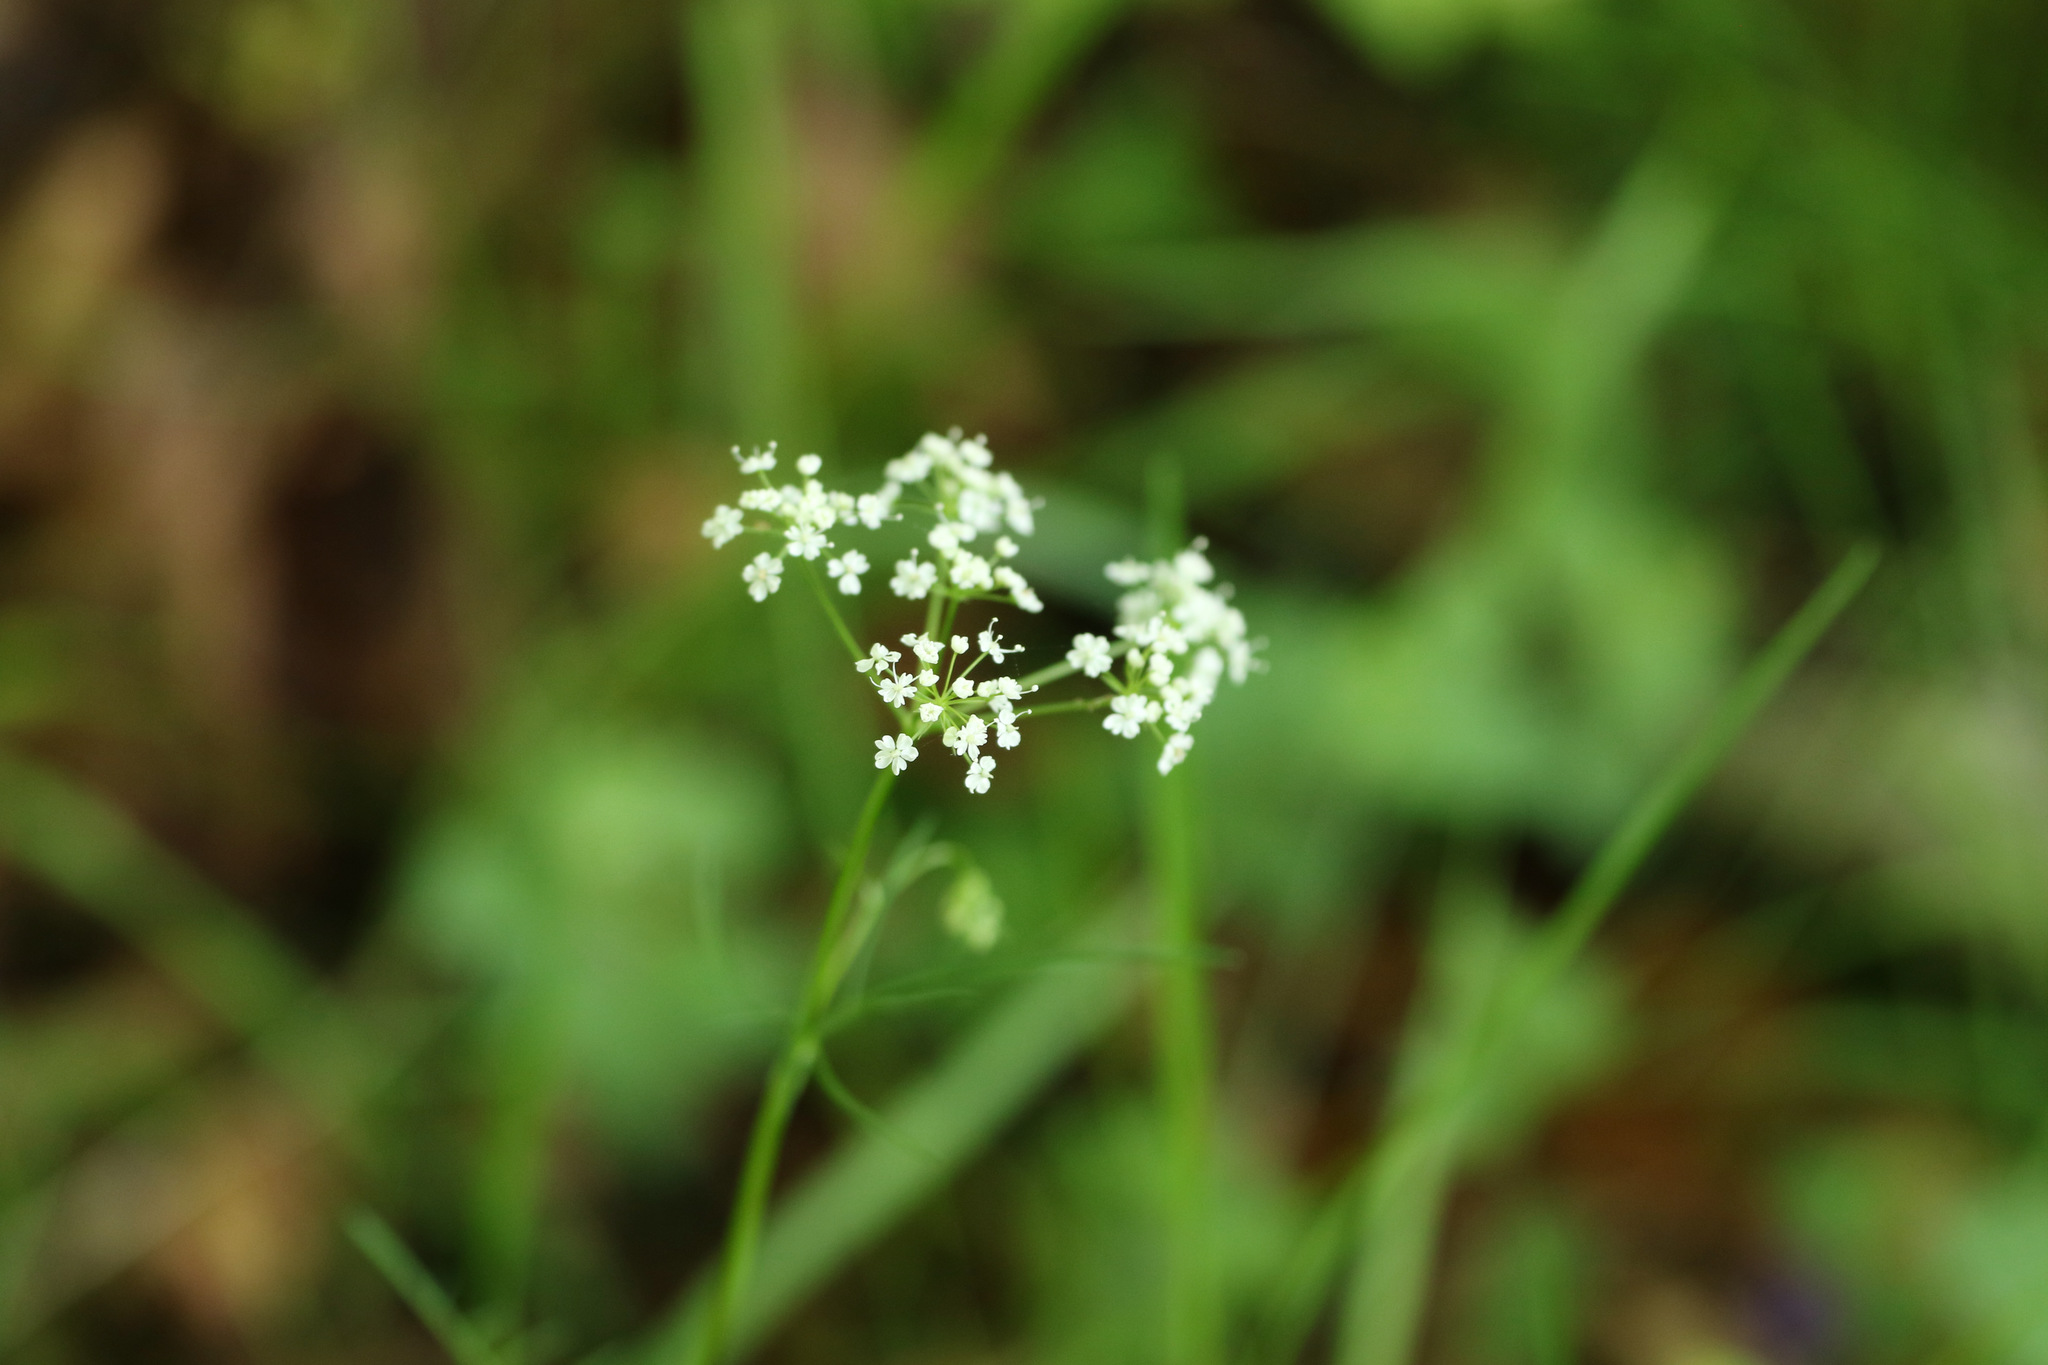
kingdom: Plantae
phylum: Tracheophyta
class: Magnoliopsida
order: Apiales
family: Apiaceae
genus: Conopodium
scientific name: Conopodium majus
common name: Pignut
